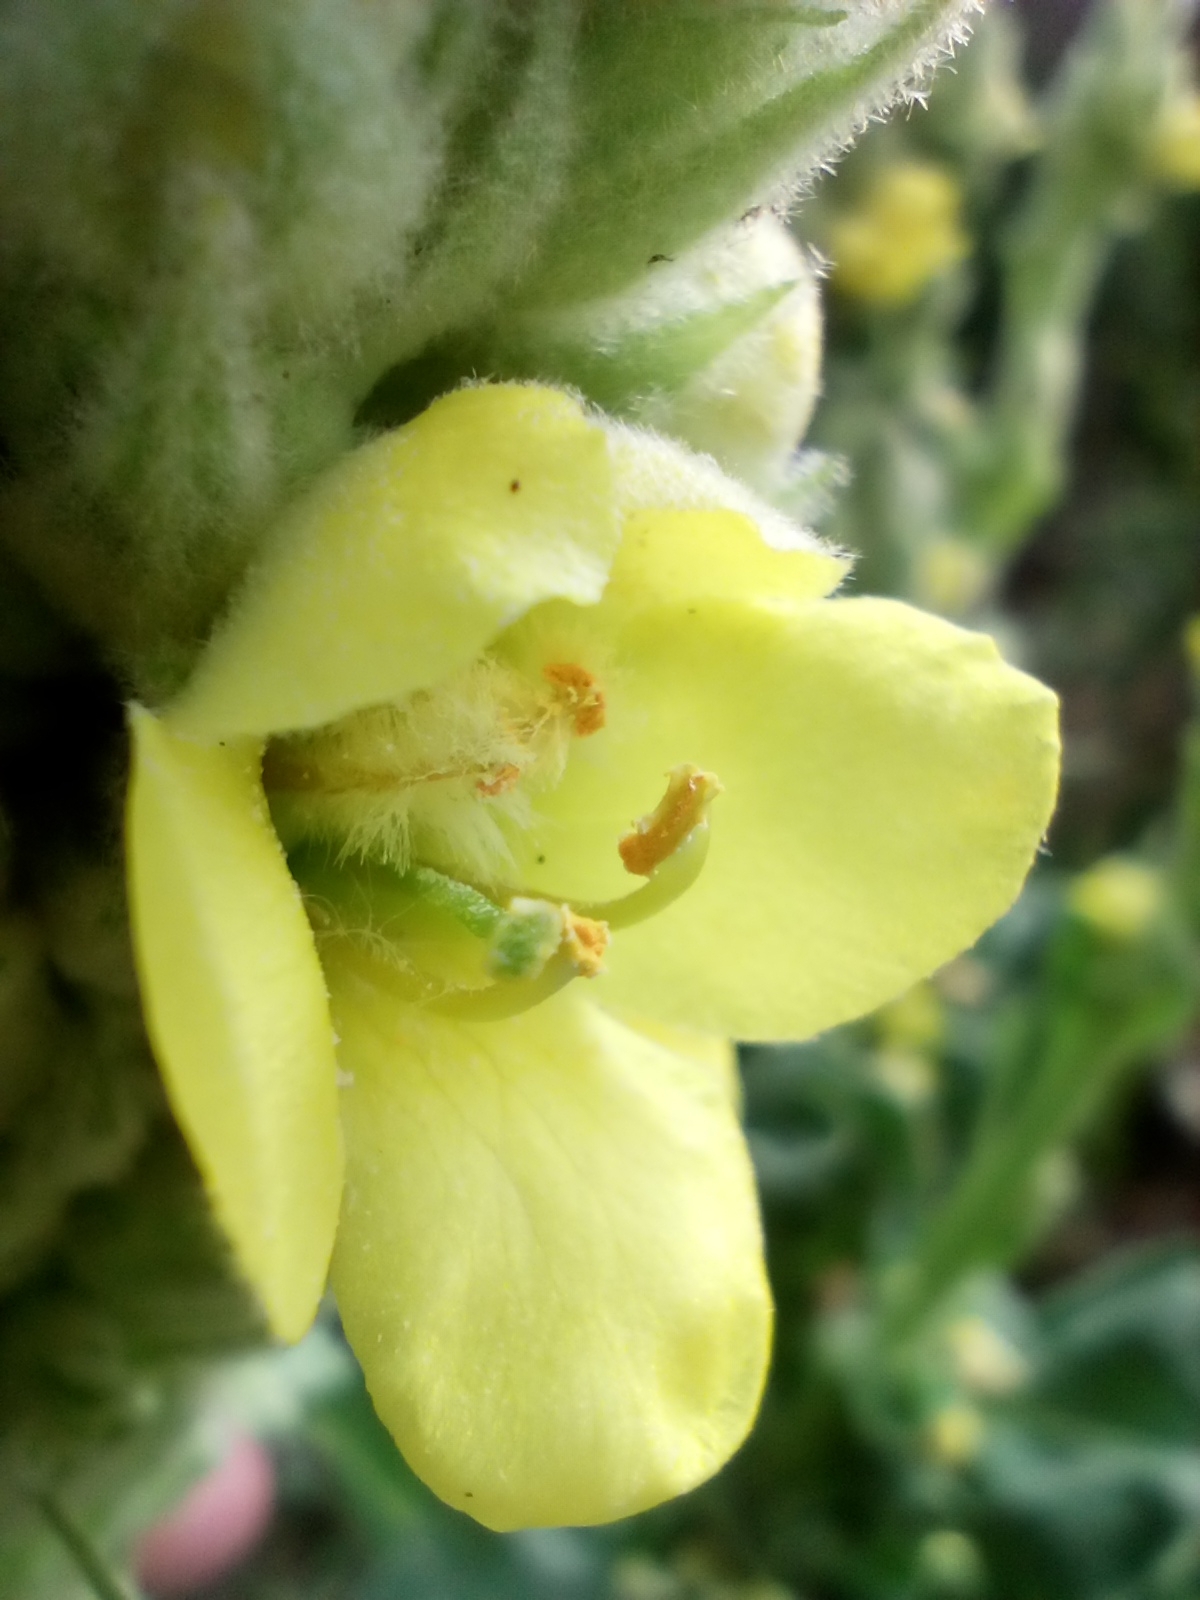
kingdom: Plantae
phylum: Tracheophyta
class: Magnoliopsida
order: Lamiales
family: Scrophulariaceae
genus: Verbascum
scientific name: Verbascum thapsus
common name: Common mullein
